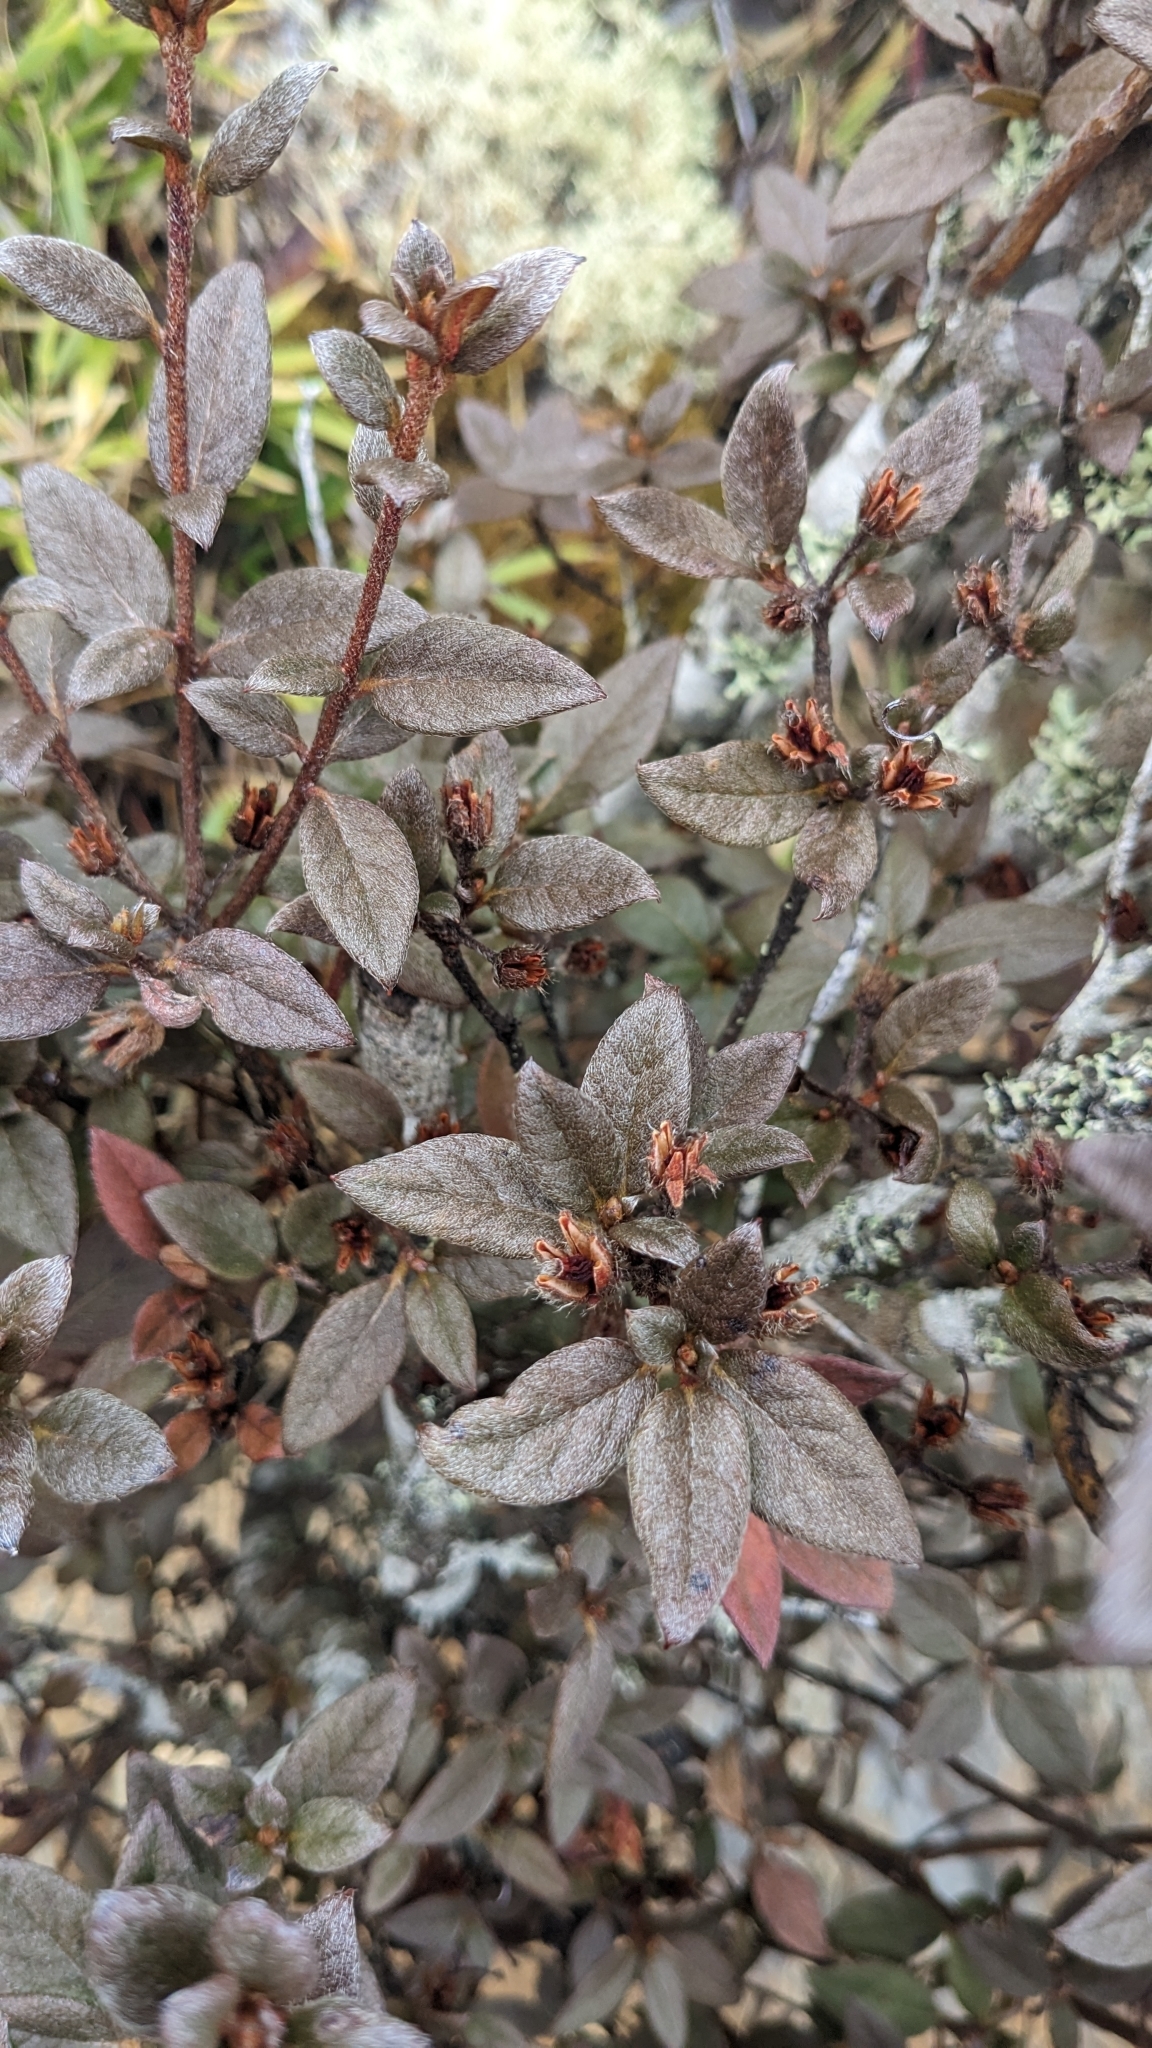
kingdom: Plantae
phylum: Tracheophyta
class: Magnoliopsida
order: Ericales
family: Ericaceae
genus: Rhododendron
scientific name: Rhododendron taiwanalpinum
